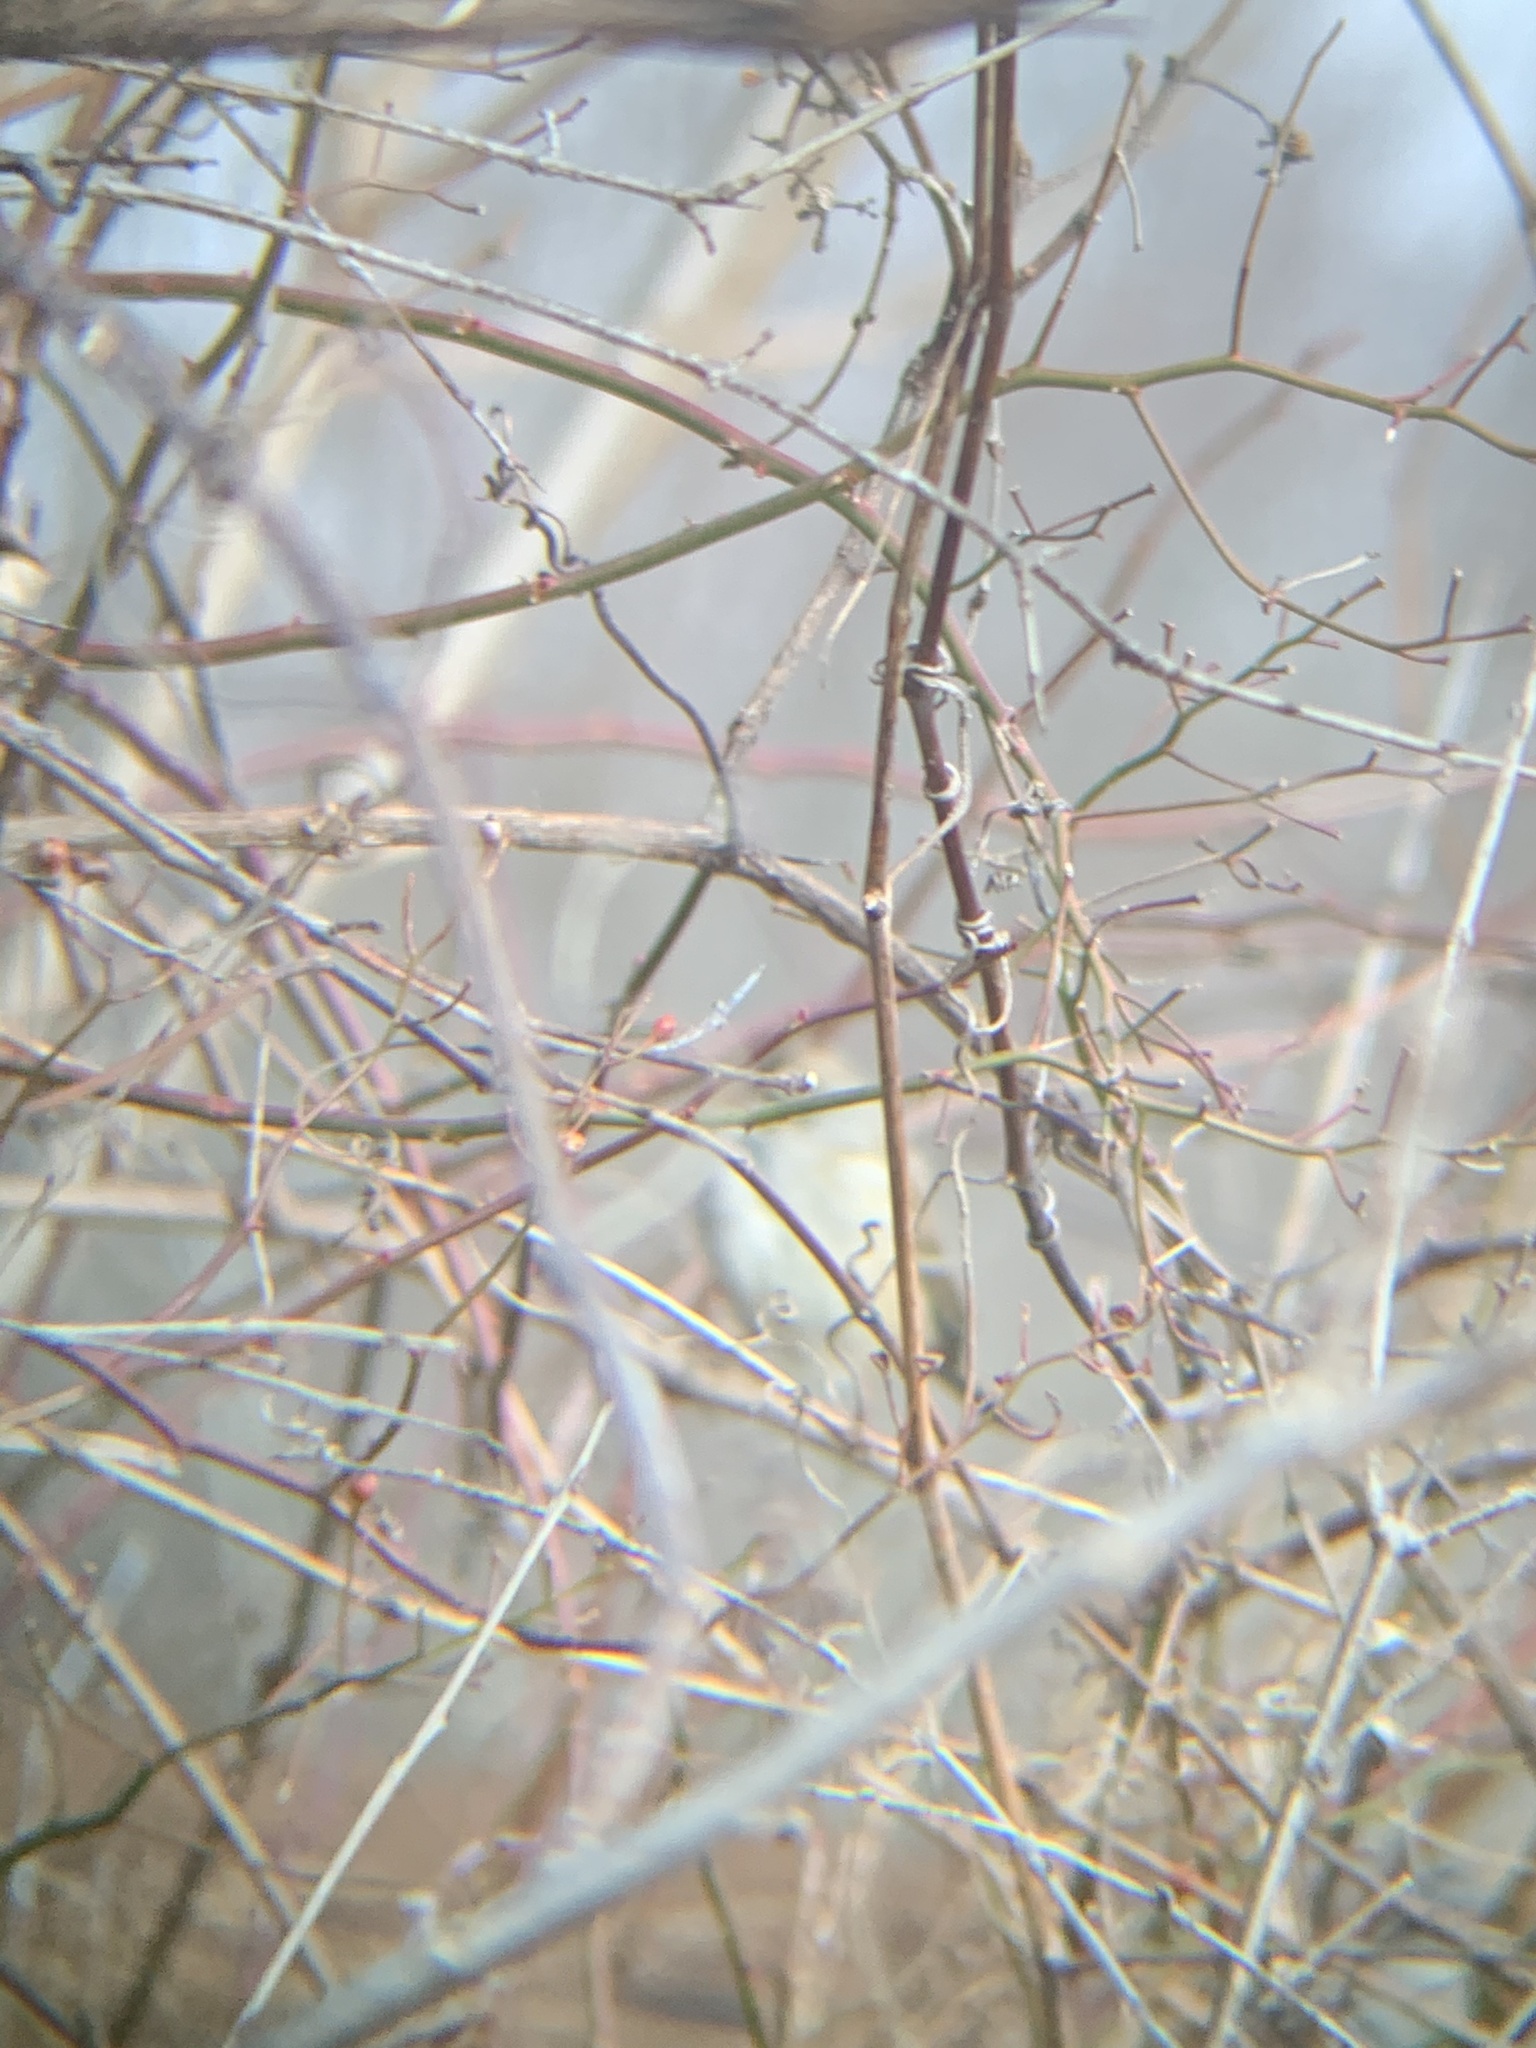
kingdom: Animalia
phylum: Chordata
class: Aves
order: Passeriformes
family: Passerellidae
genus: Zonotrichia
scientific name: Zonotrichia leucophrys
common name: White-crowned sparrow
